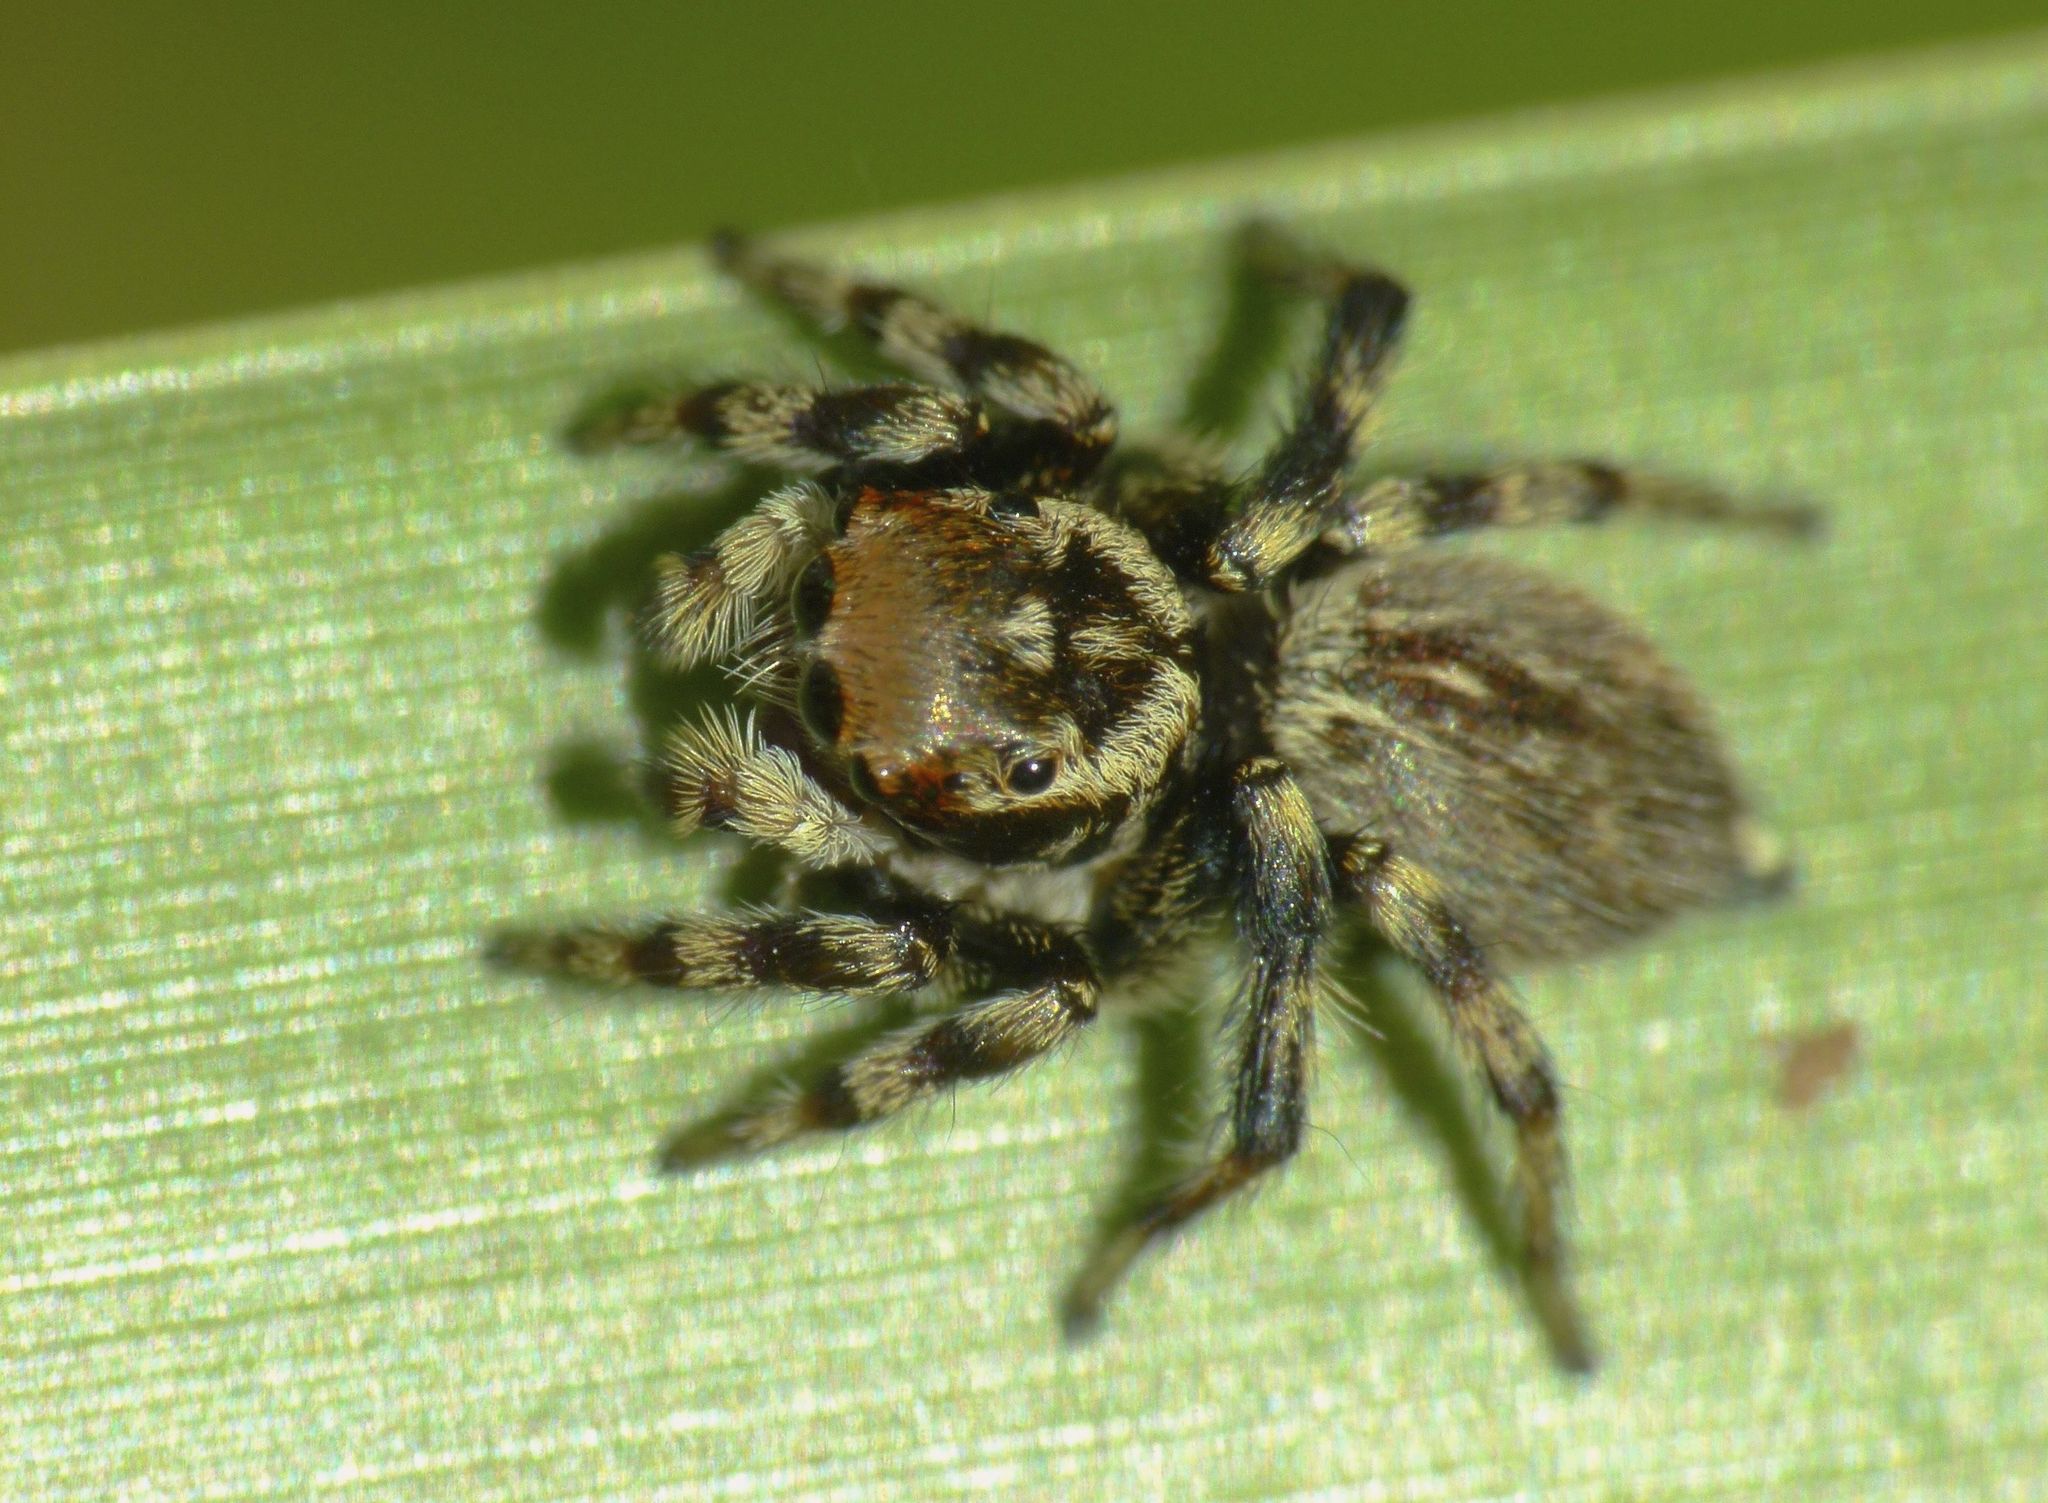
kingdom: Animalia
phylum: Arthropoda
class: Arachnida
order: Araneae
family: Salticidae
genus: Maratus
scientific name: Maratus griseus
